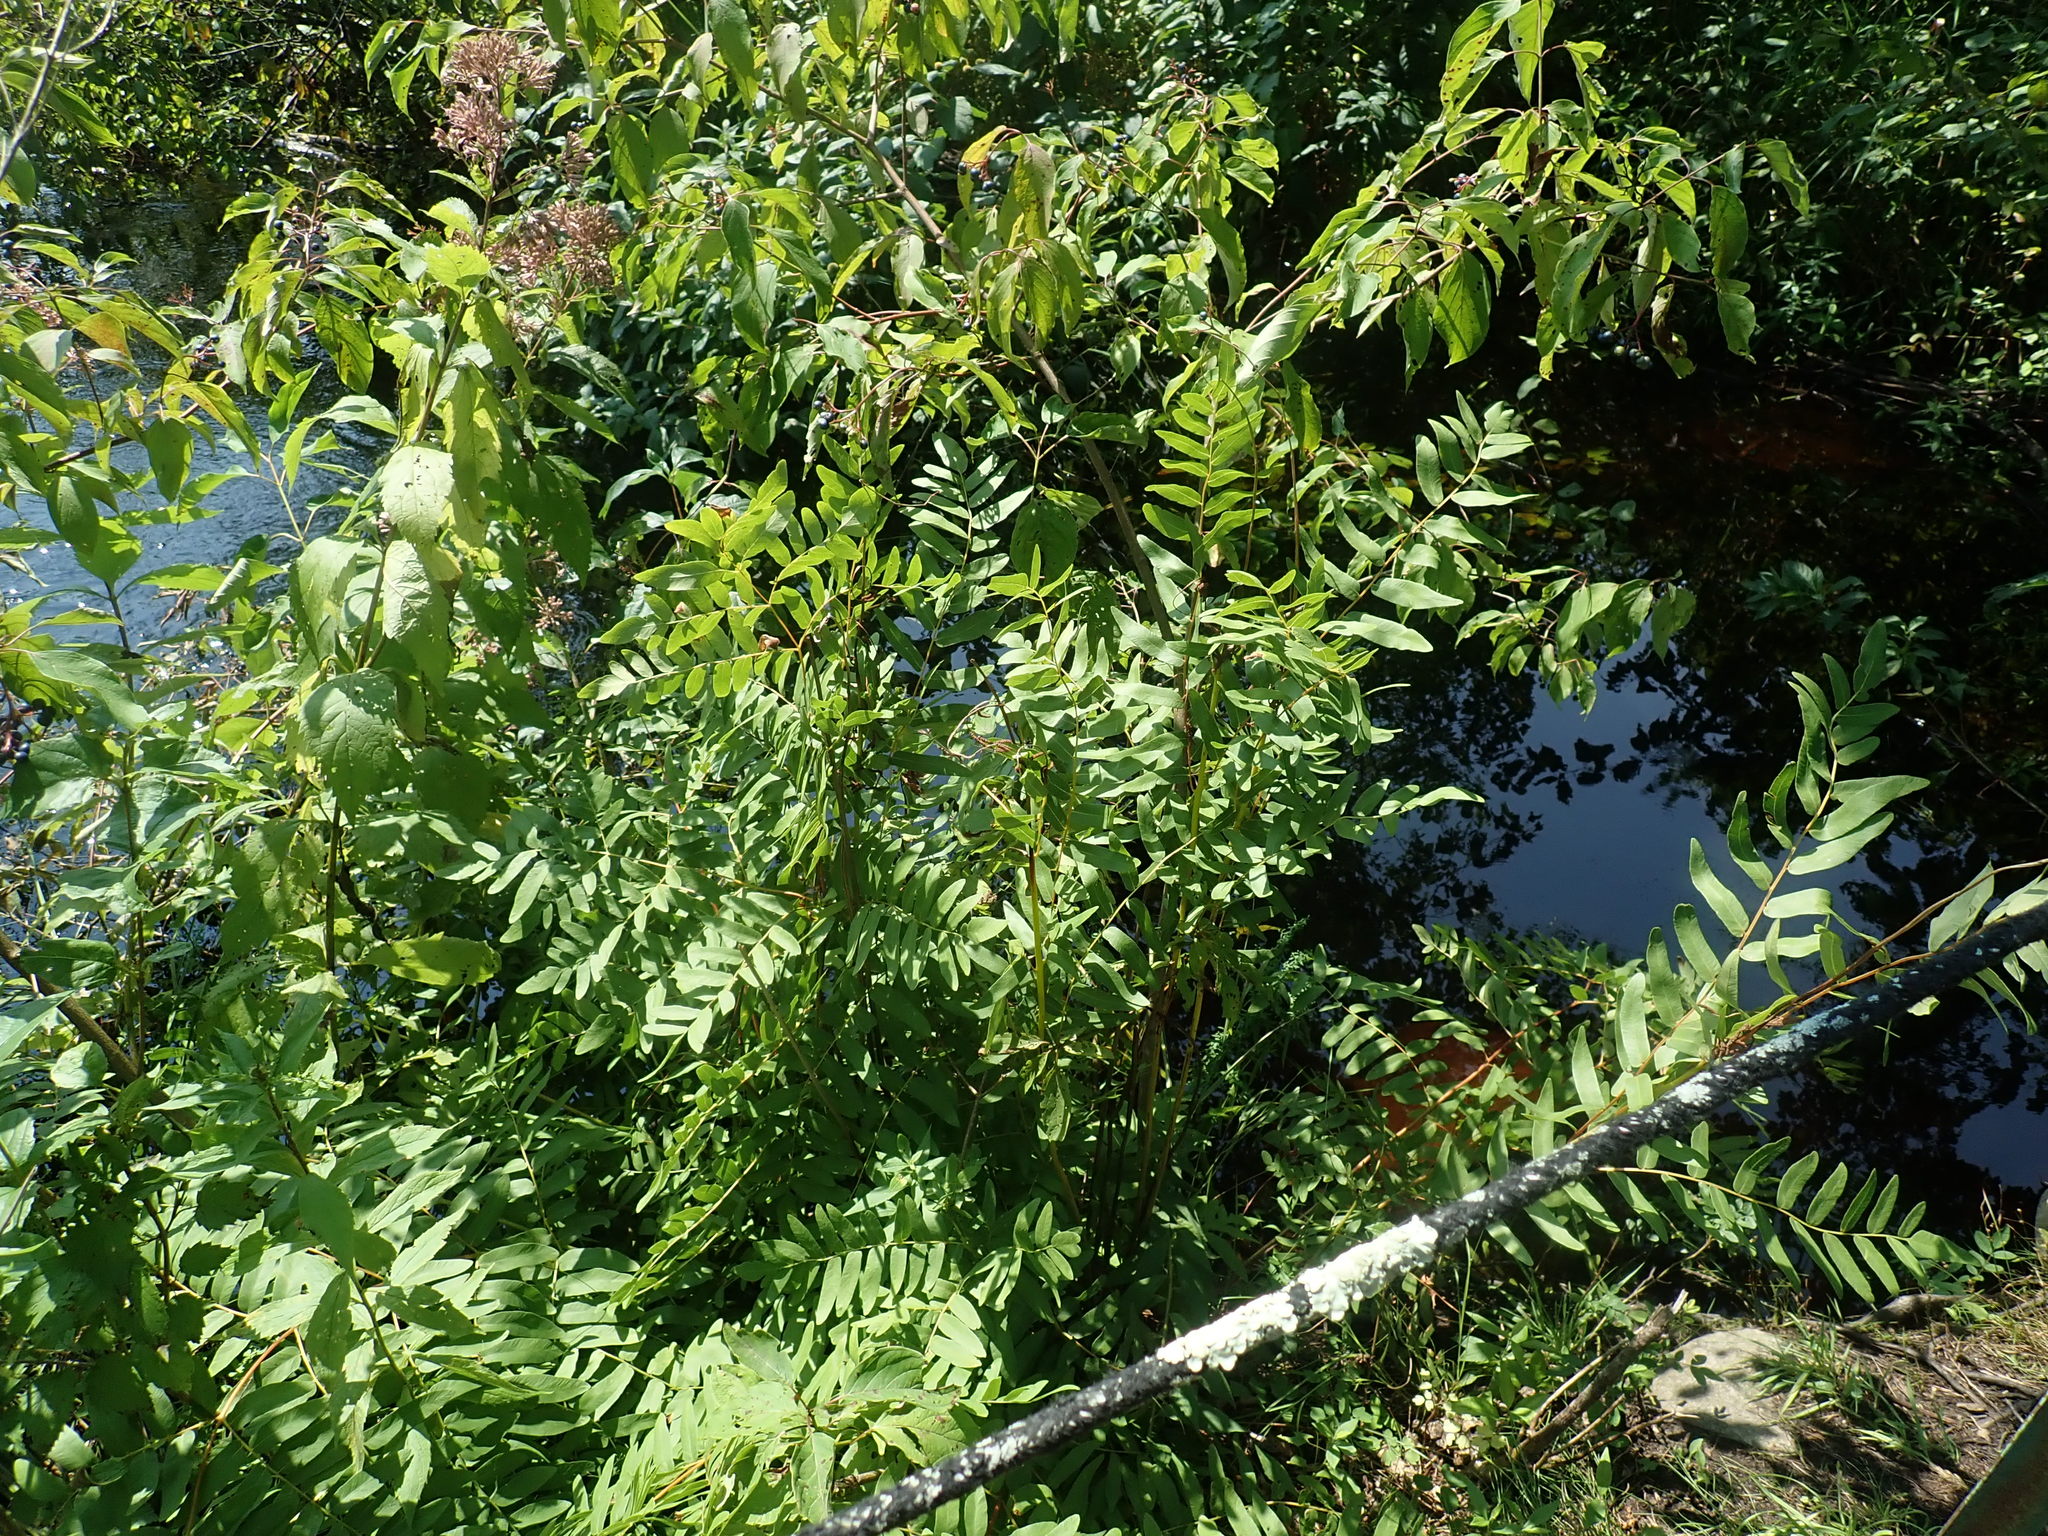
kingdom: Plantae
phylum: Tracheophyta
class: Polypodiopsida
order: Osmundales
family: Osmundaceae
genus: Osmunda
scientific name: Osmunda spectabilis
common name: American royal fern
